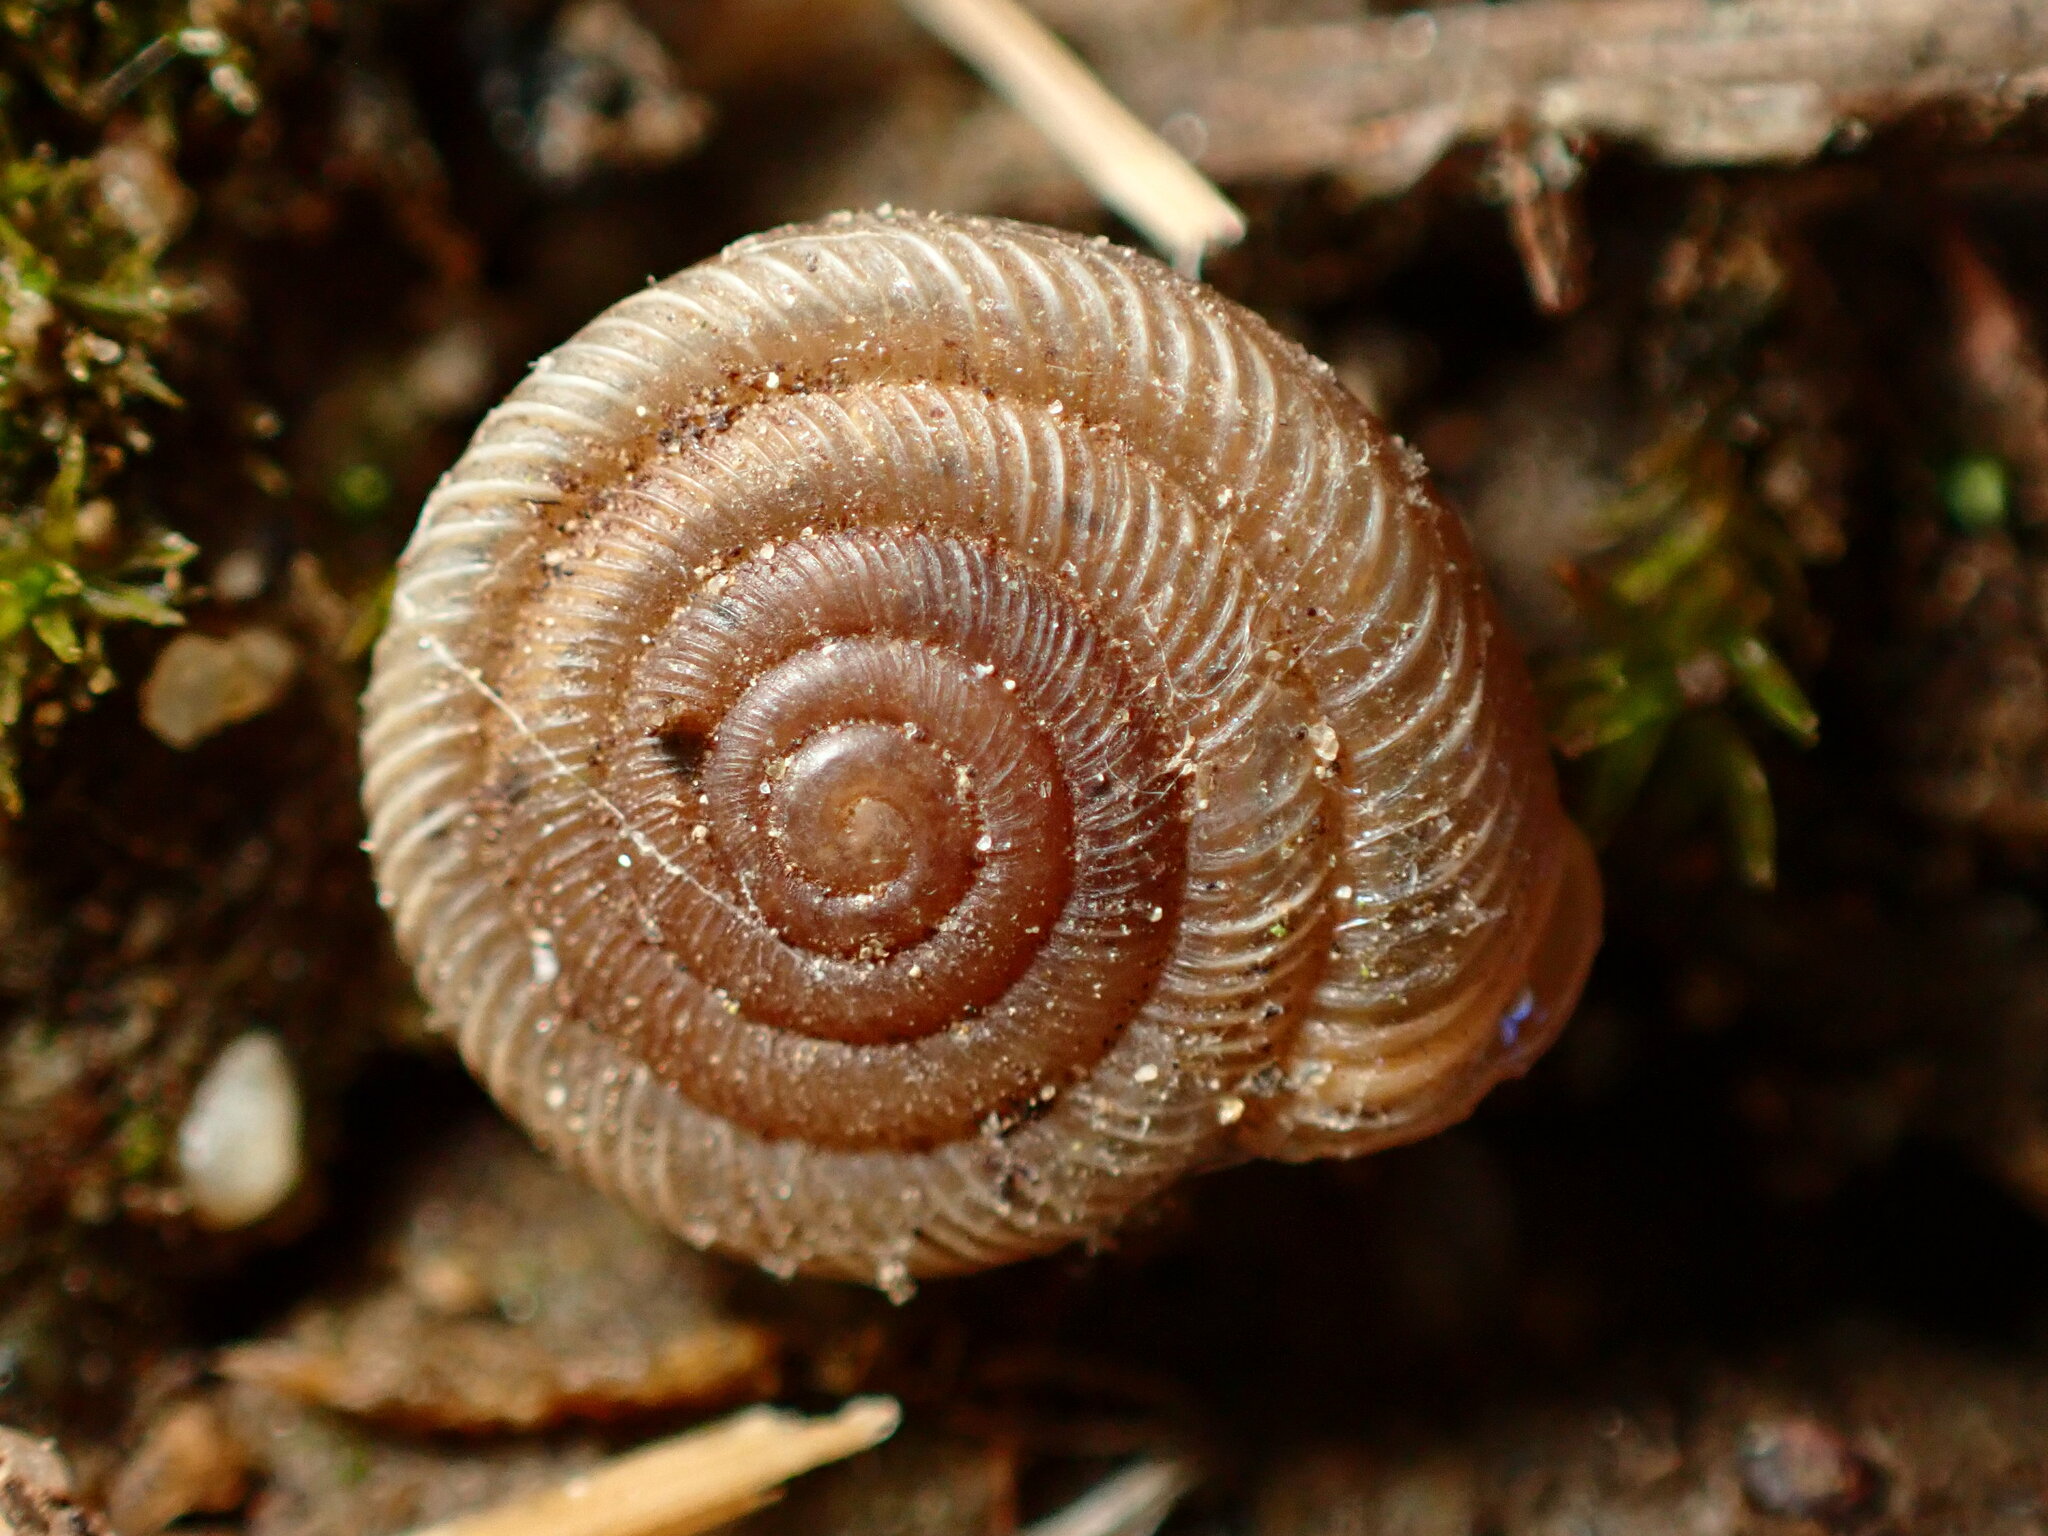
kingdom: Animalia
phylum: Mollusca
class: Gastropoda
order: Stylommatophora
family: Polygyridae
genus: Polygyra
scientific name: Polygyra cereolus
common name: Southern flatcone snail
